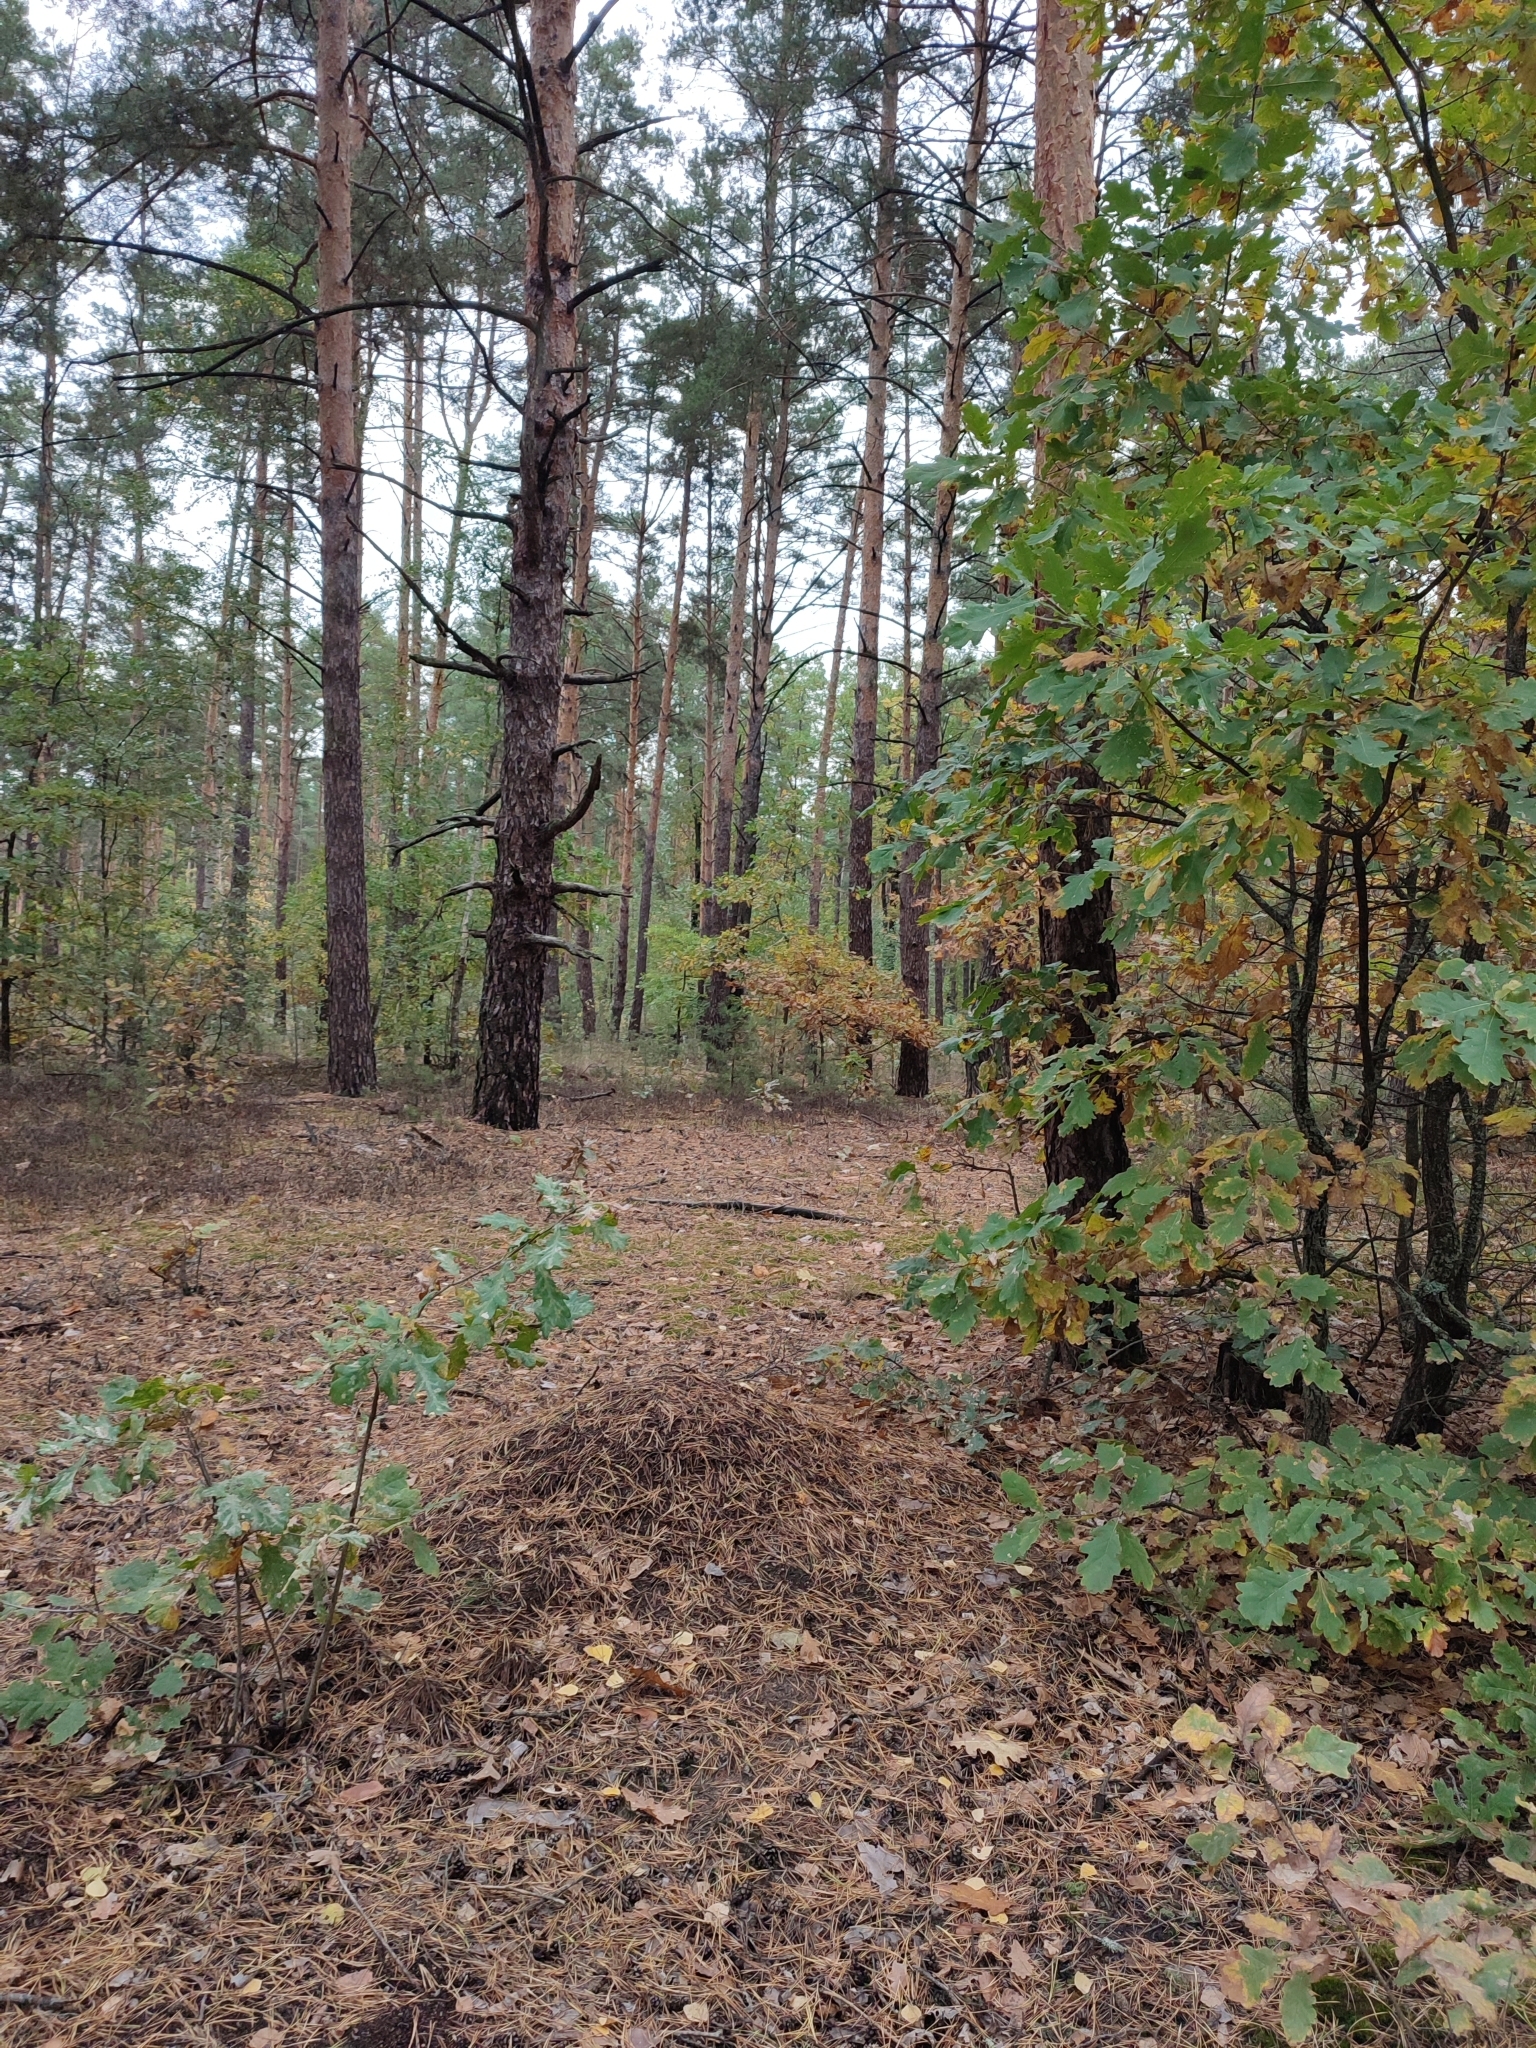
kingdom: Plantae
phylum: Tracheophyta
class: Magnoliopsida
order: Fagales
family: Fagaceae
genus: Quercus
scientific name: Quercus robur
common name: Pedunculate oak
